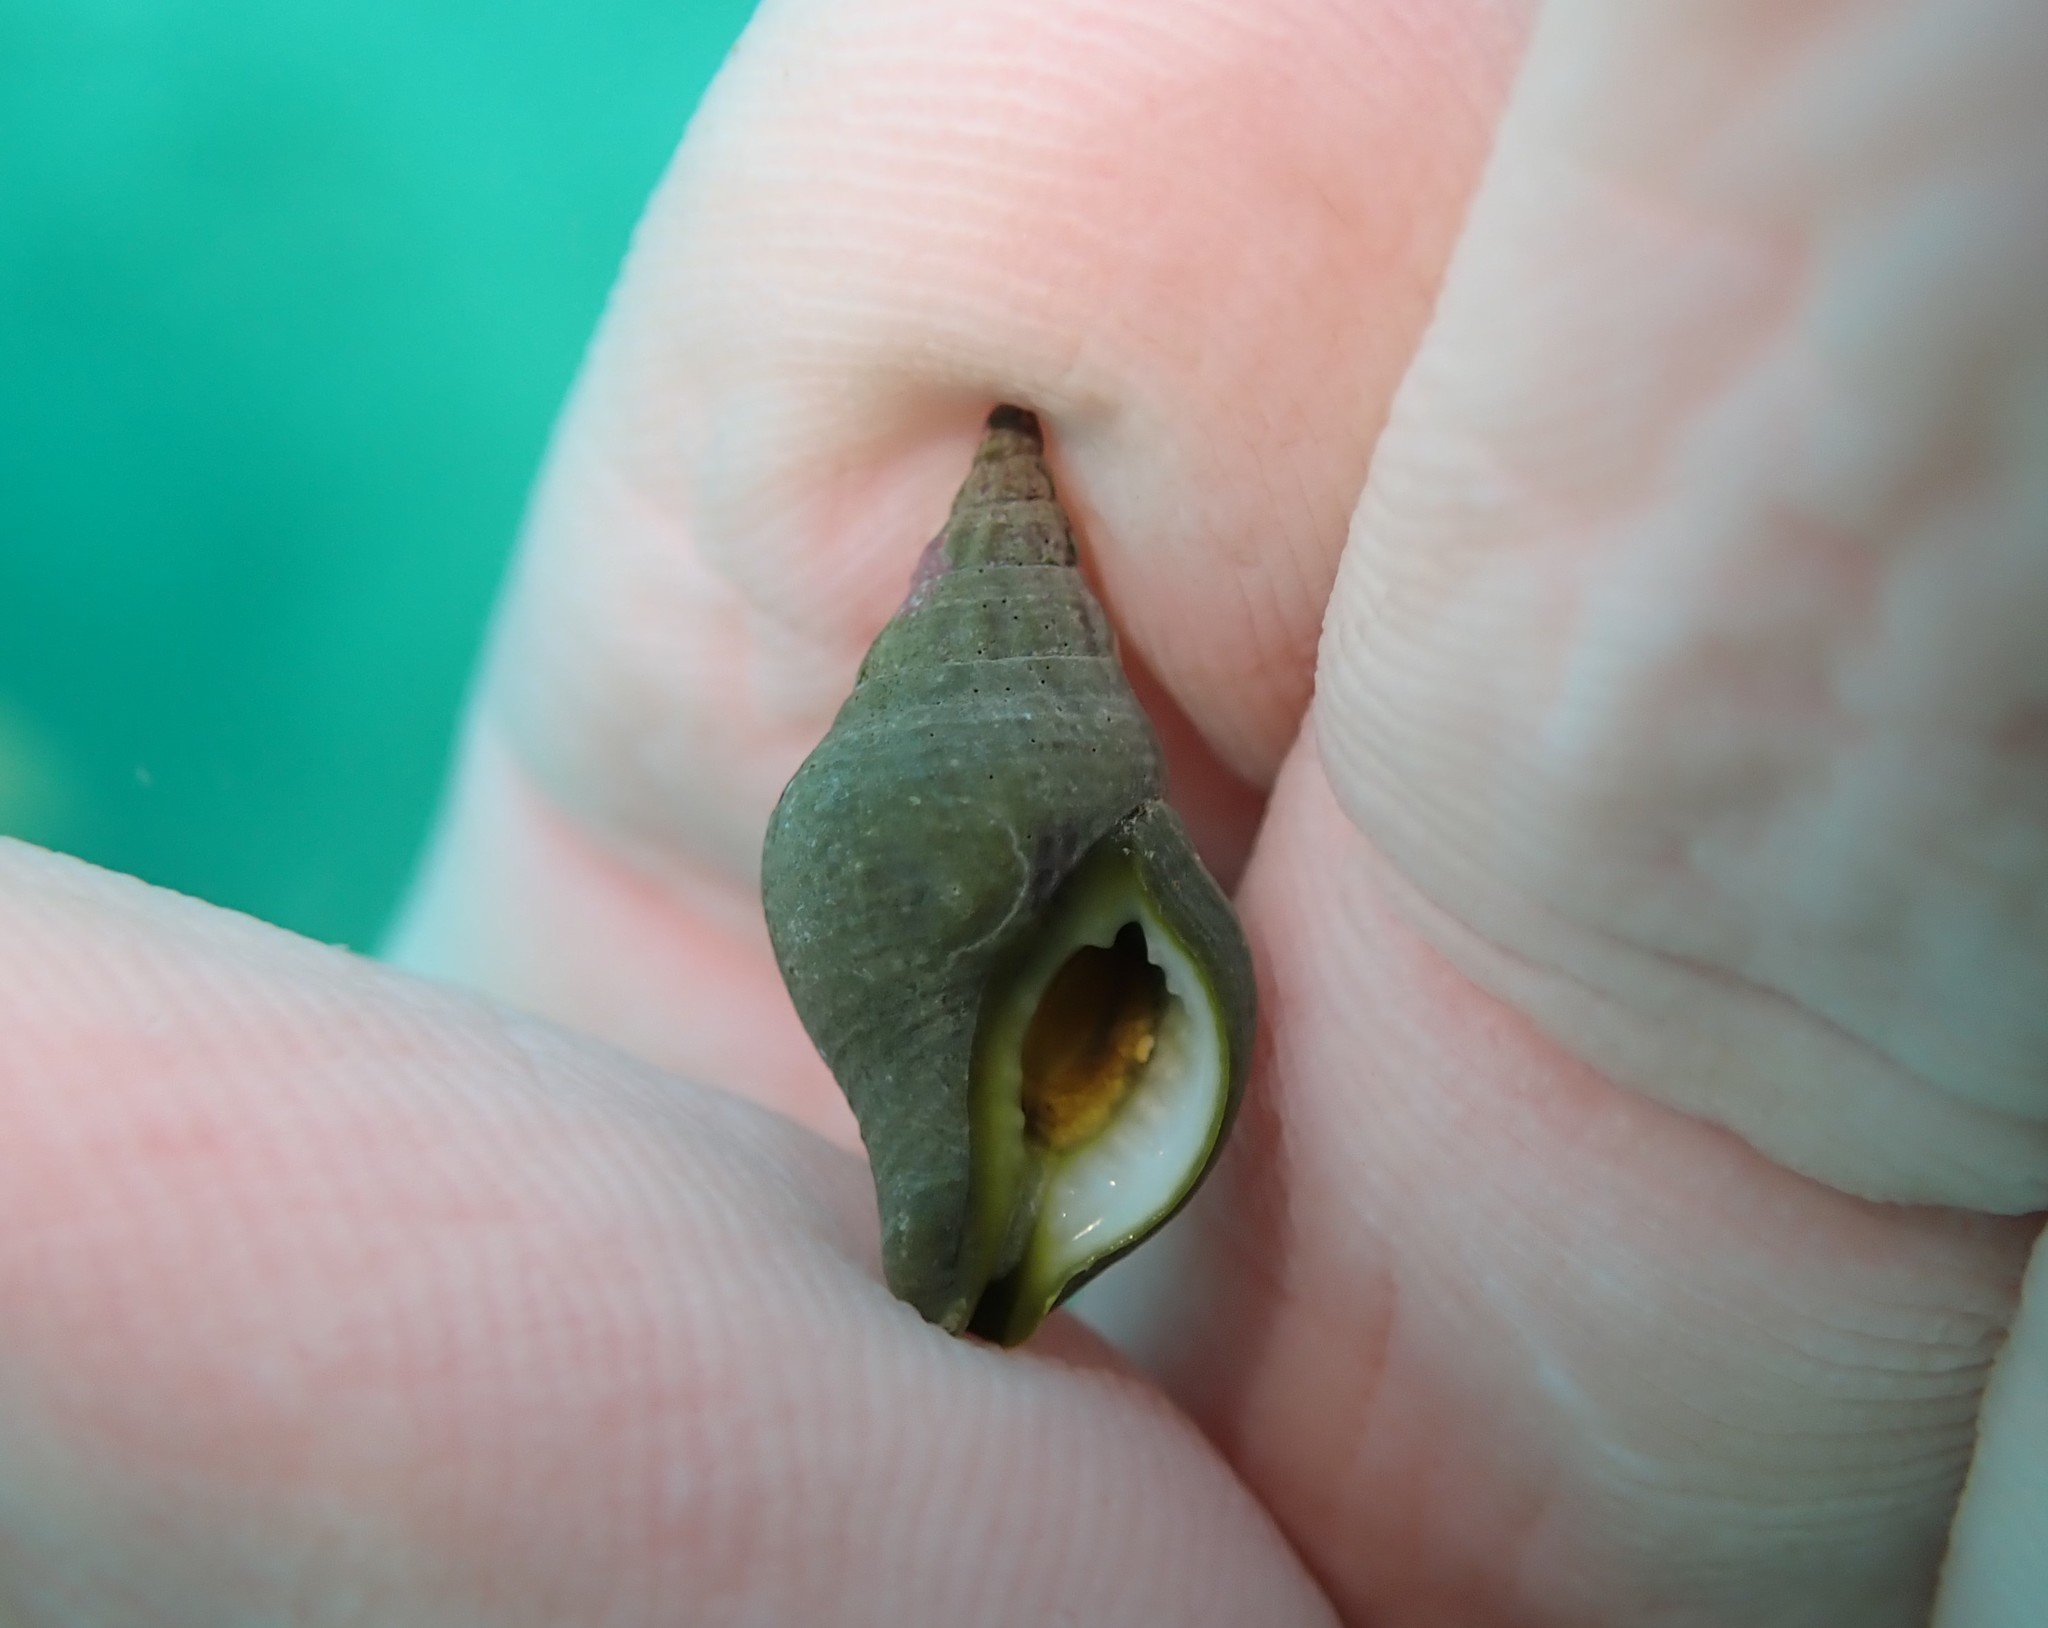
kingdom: Animalia
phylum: Mollusca
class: Gastropoda
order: Neogastropoda
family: Tudiclidae
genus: Buccinulum
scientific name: Buccinulum vittatum
